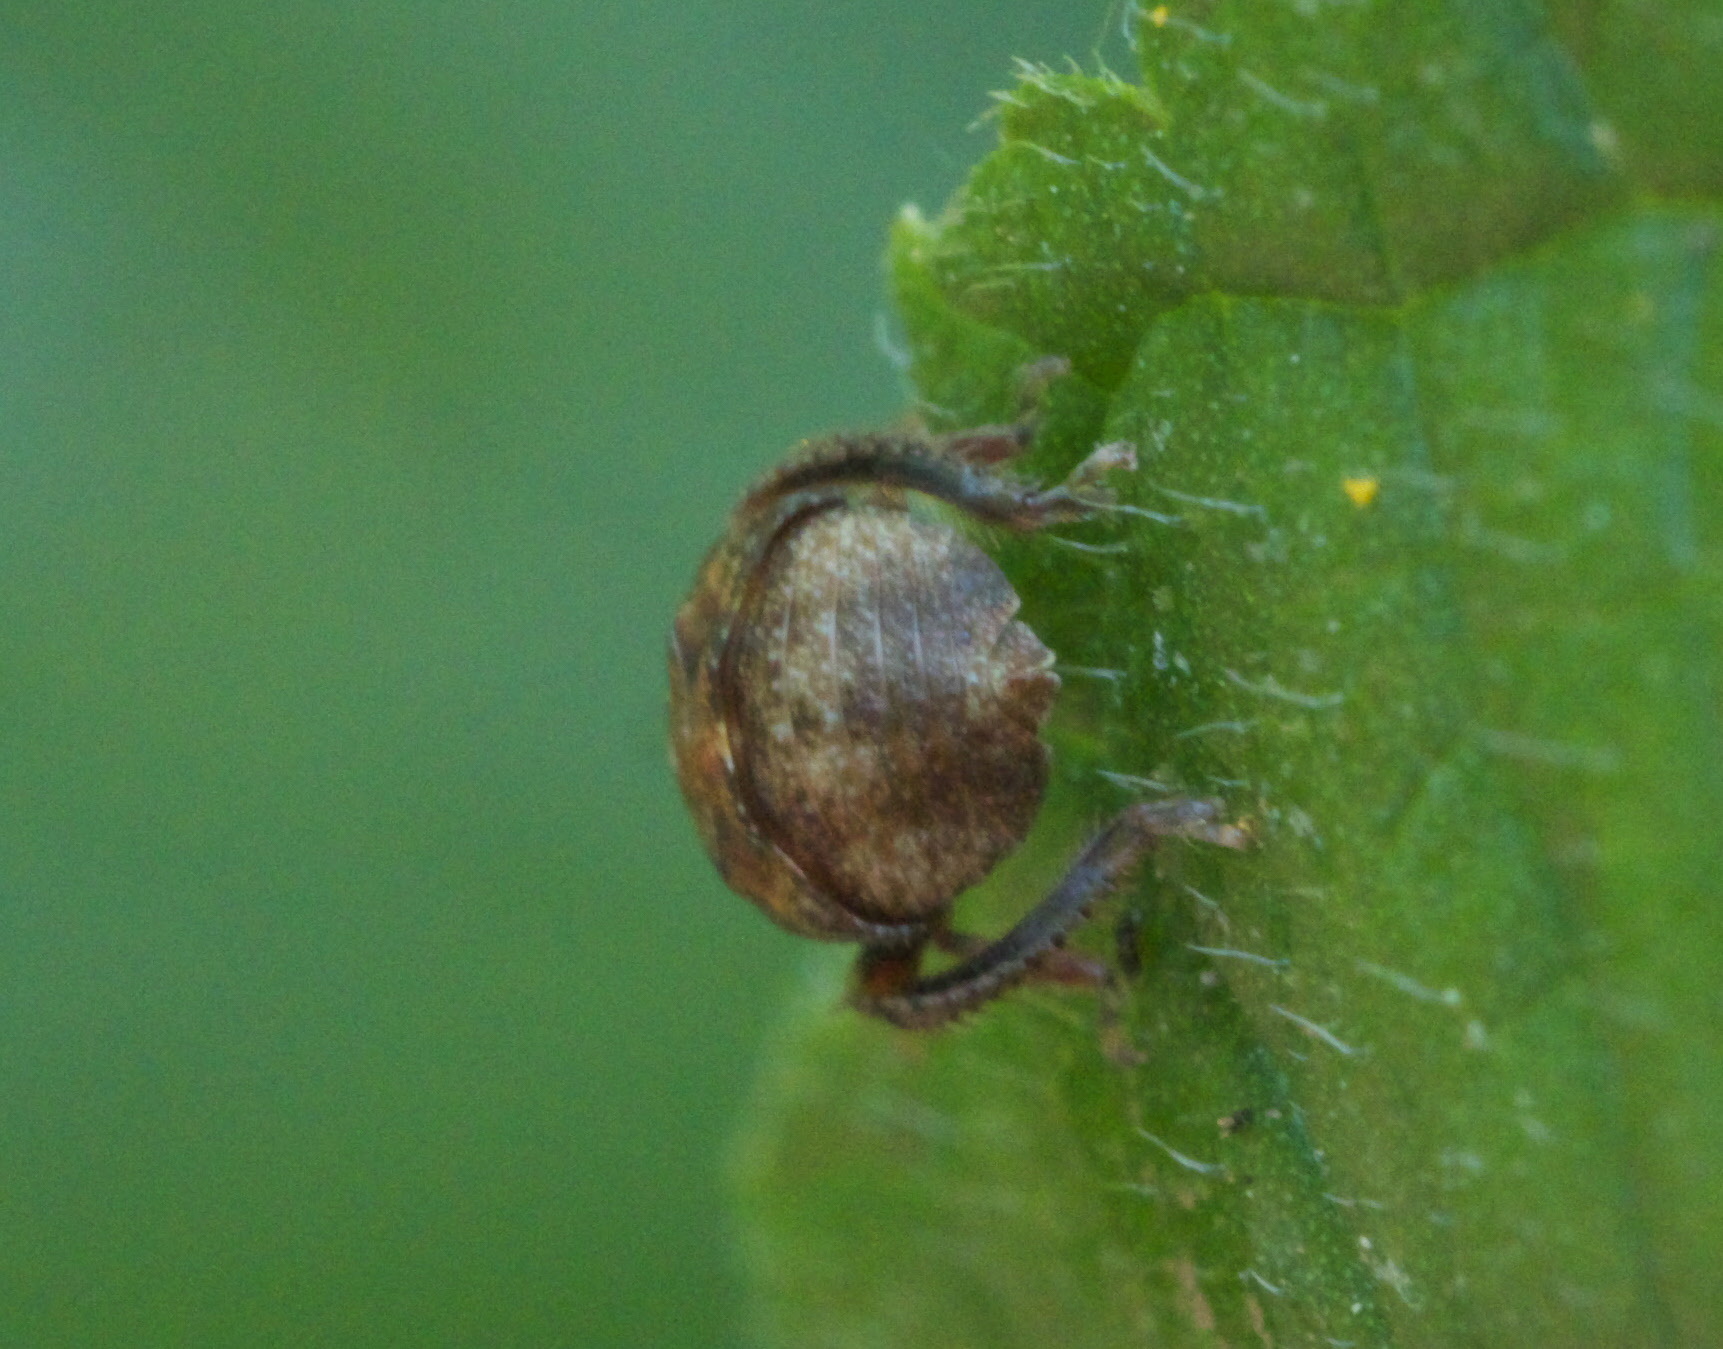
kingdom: Animalia
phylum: Arthropoda
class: Insecta
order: Hemiptera
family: Cicadellidae
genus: Penthimia
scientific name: Penthimia americana
